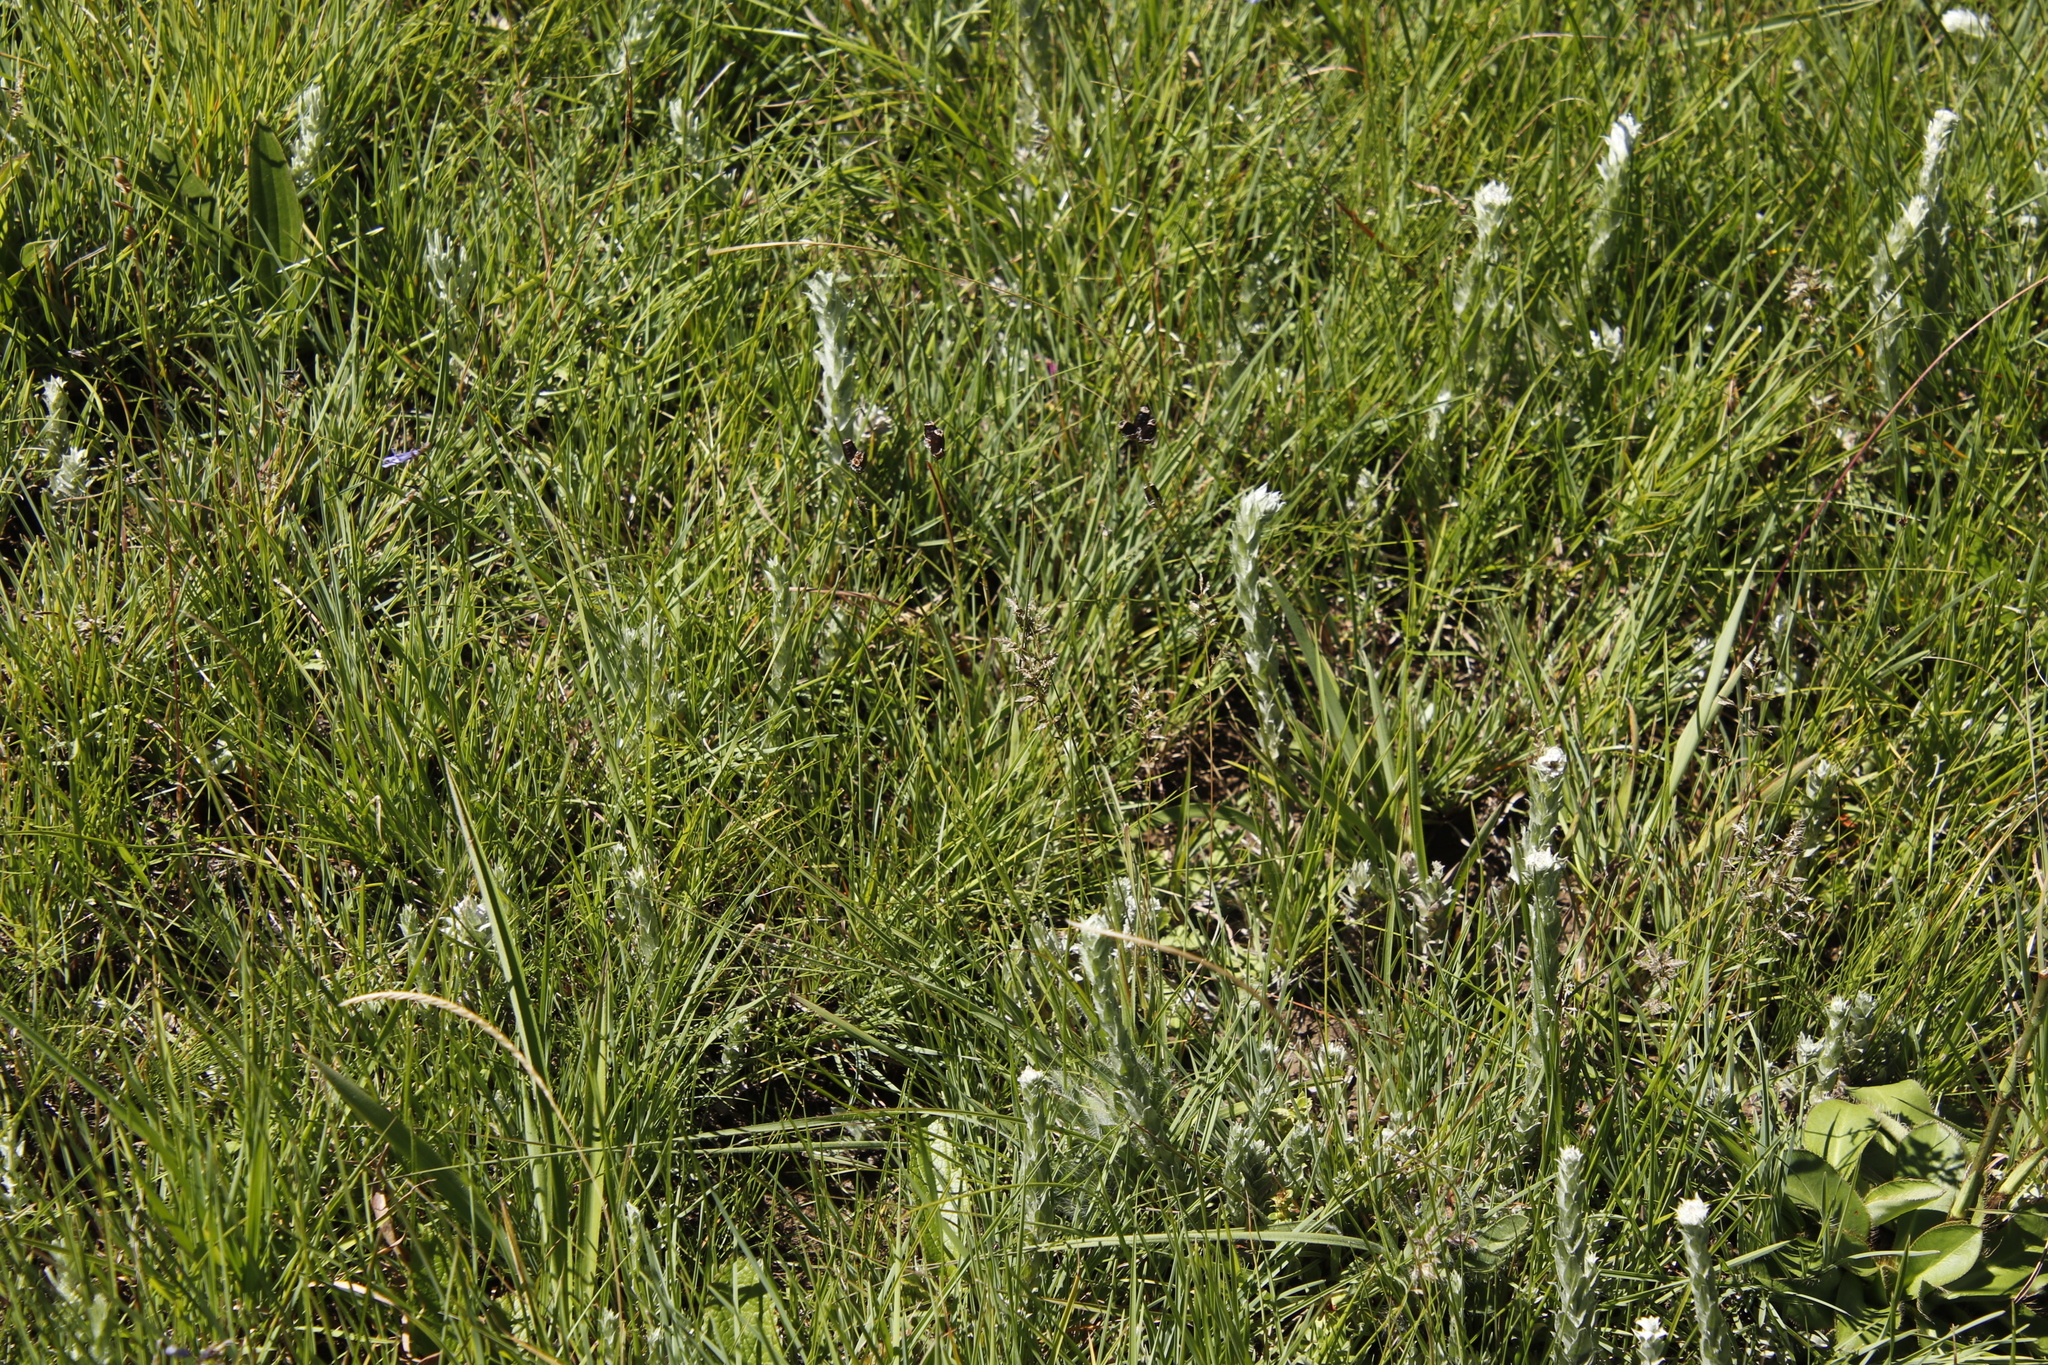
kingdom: Plantae
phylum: Tracheophyta
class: Liliopsida
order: Asparagales
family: Iridaceae
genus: Aristea
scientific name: Aristea torulosa
